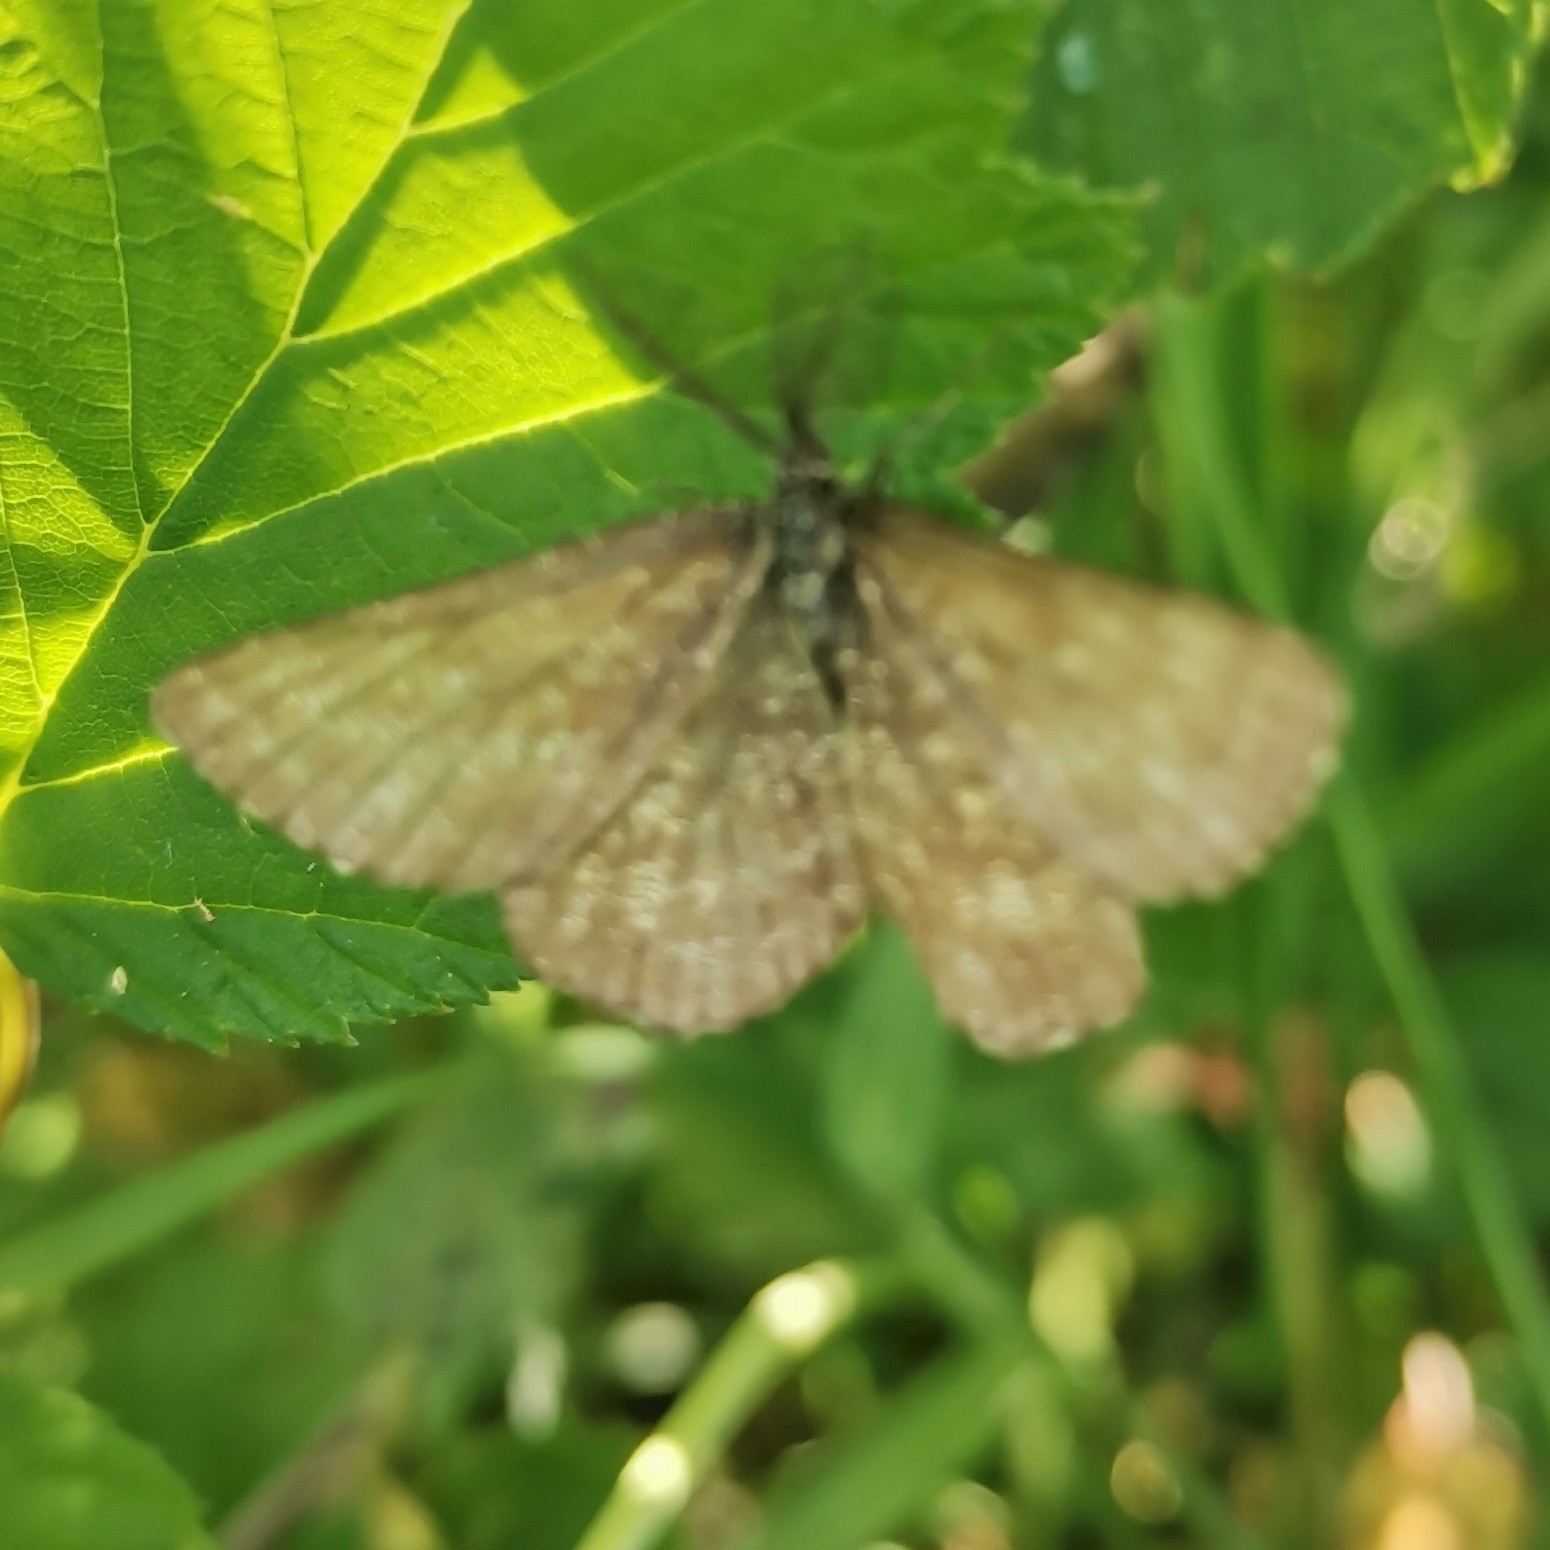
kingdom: Animalia
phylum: Arthropoda
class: Insecta
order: Lepidoptera
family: Geometridae
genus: Ematurga
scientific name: Ematurga atomaria
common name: Common heath
